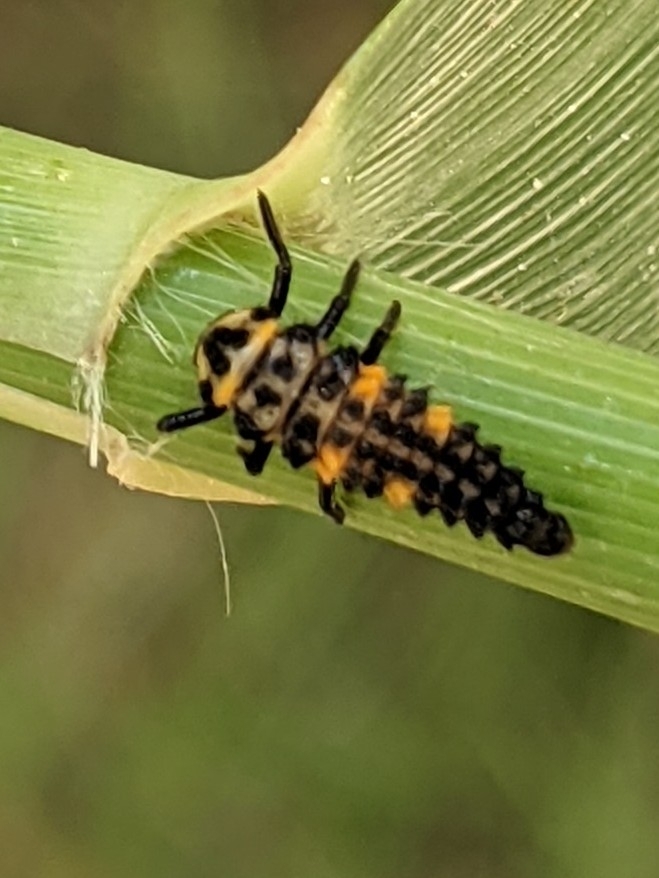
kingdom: Animalia
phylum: Arthropoda
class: Insecta
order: Coleoptera
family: Coccinellidae
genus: Coccinella
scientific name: Coccinella septempunctata
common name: Sevenspotted lady beetle
